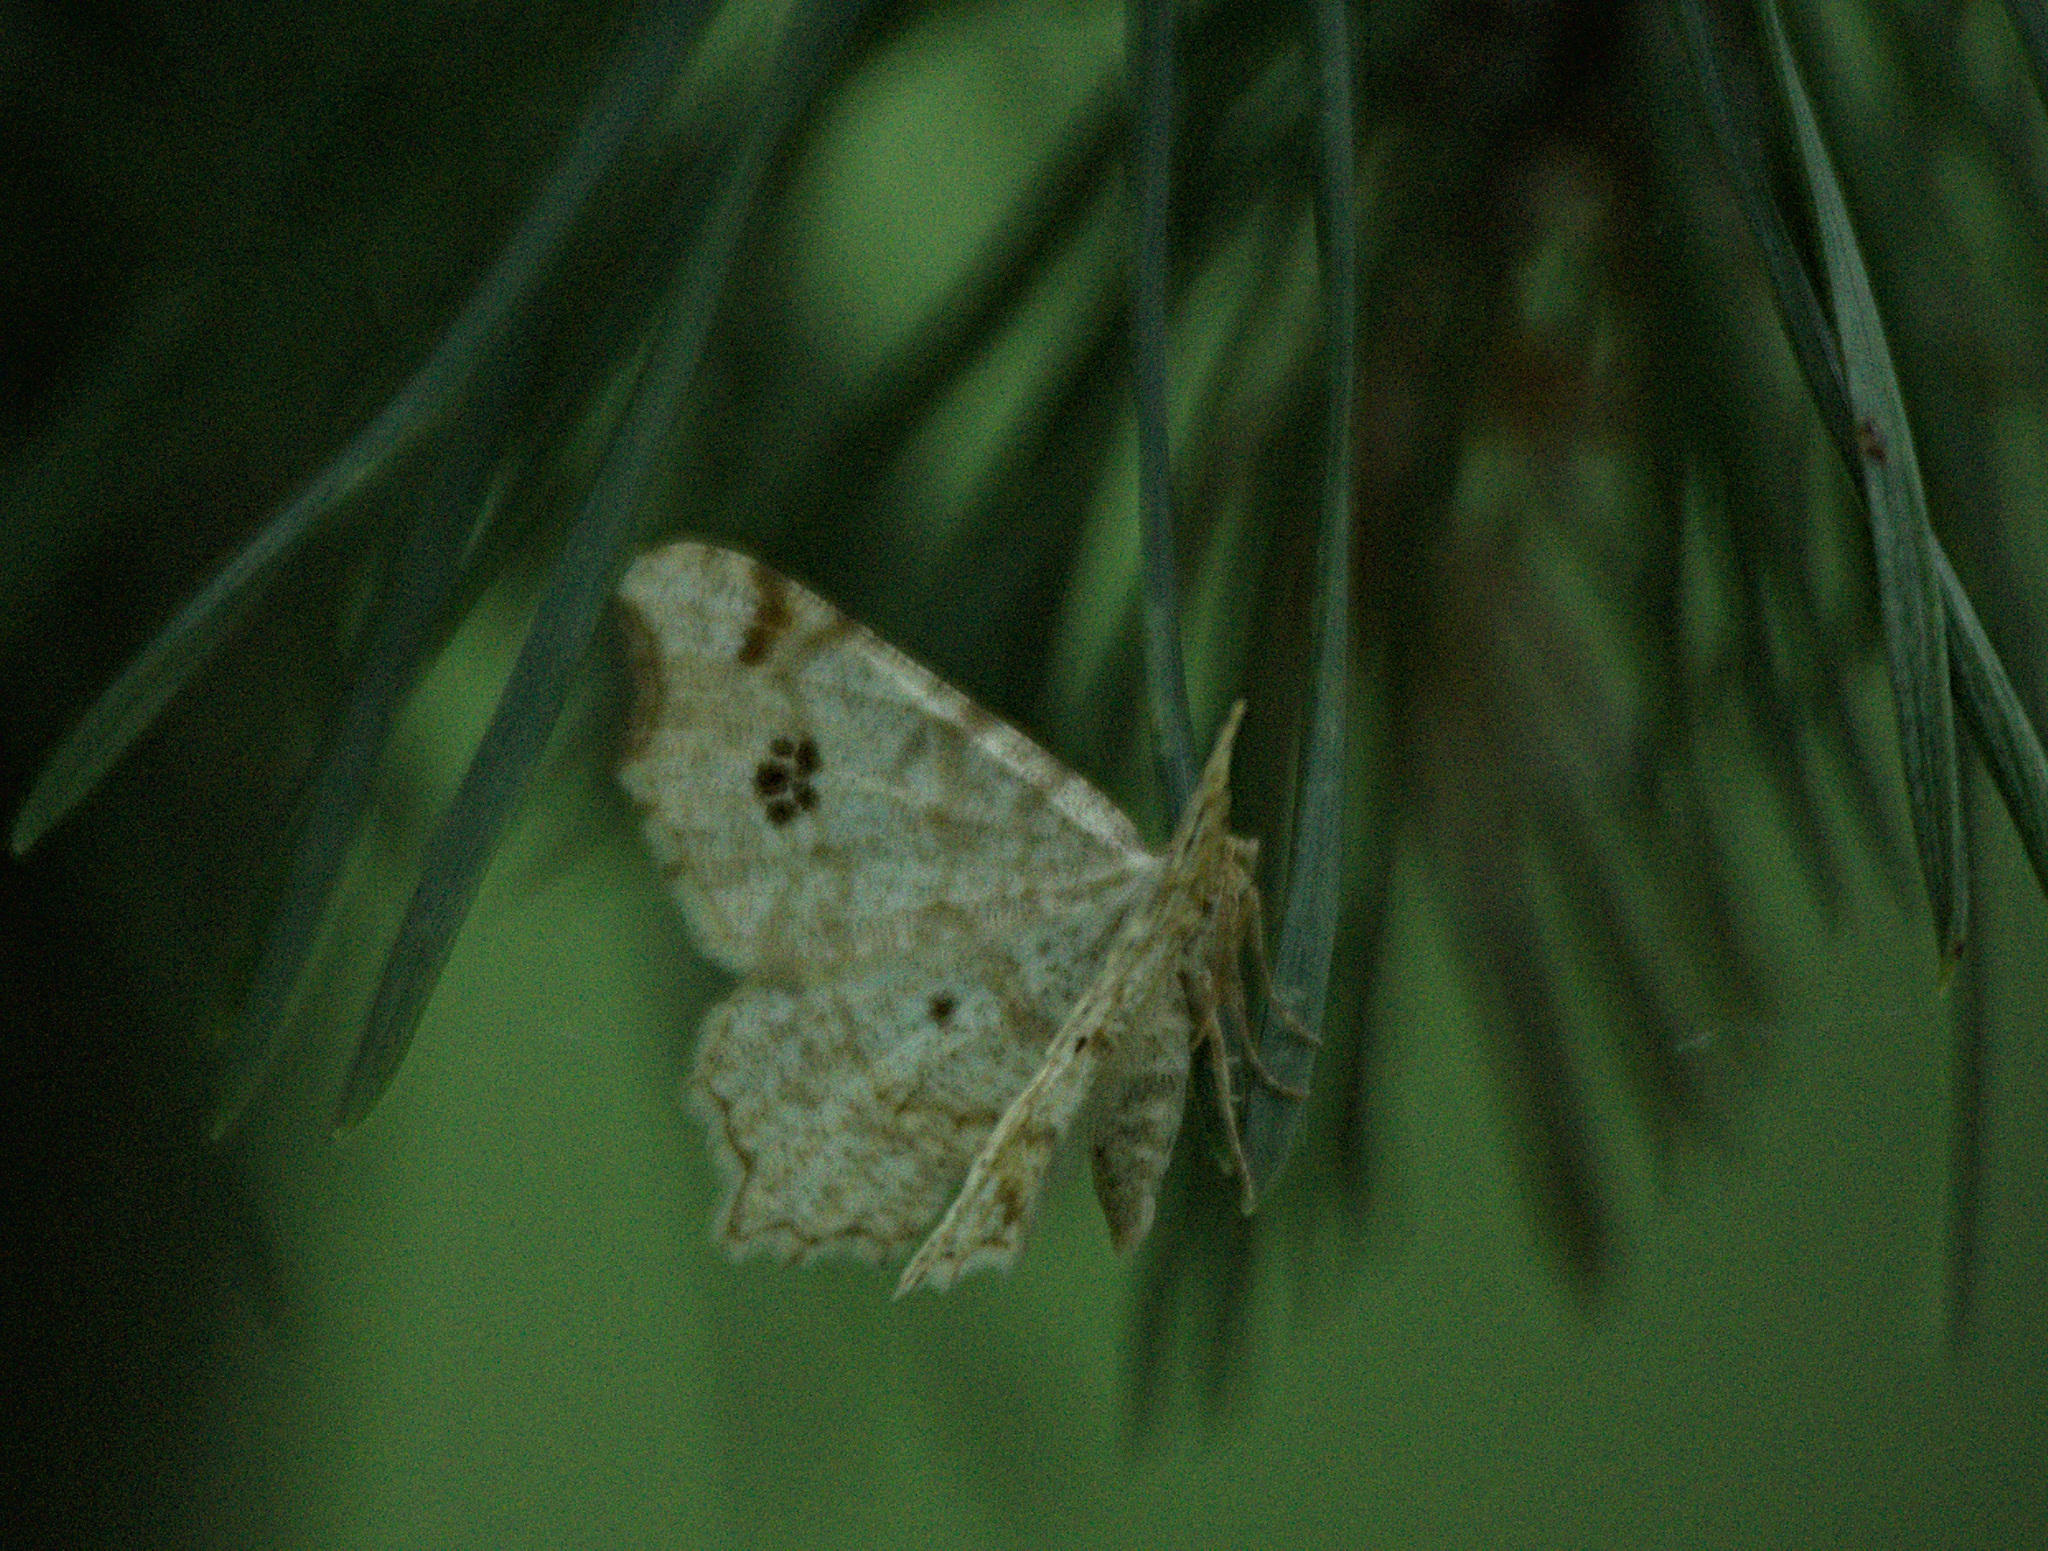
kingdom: Animalia
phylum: Arthropoda
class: Insecta
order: Lepidoptera
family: Geometridae
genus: Macaria
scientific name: Macaria notata
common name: Peacock moth
